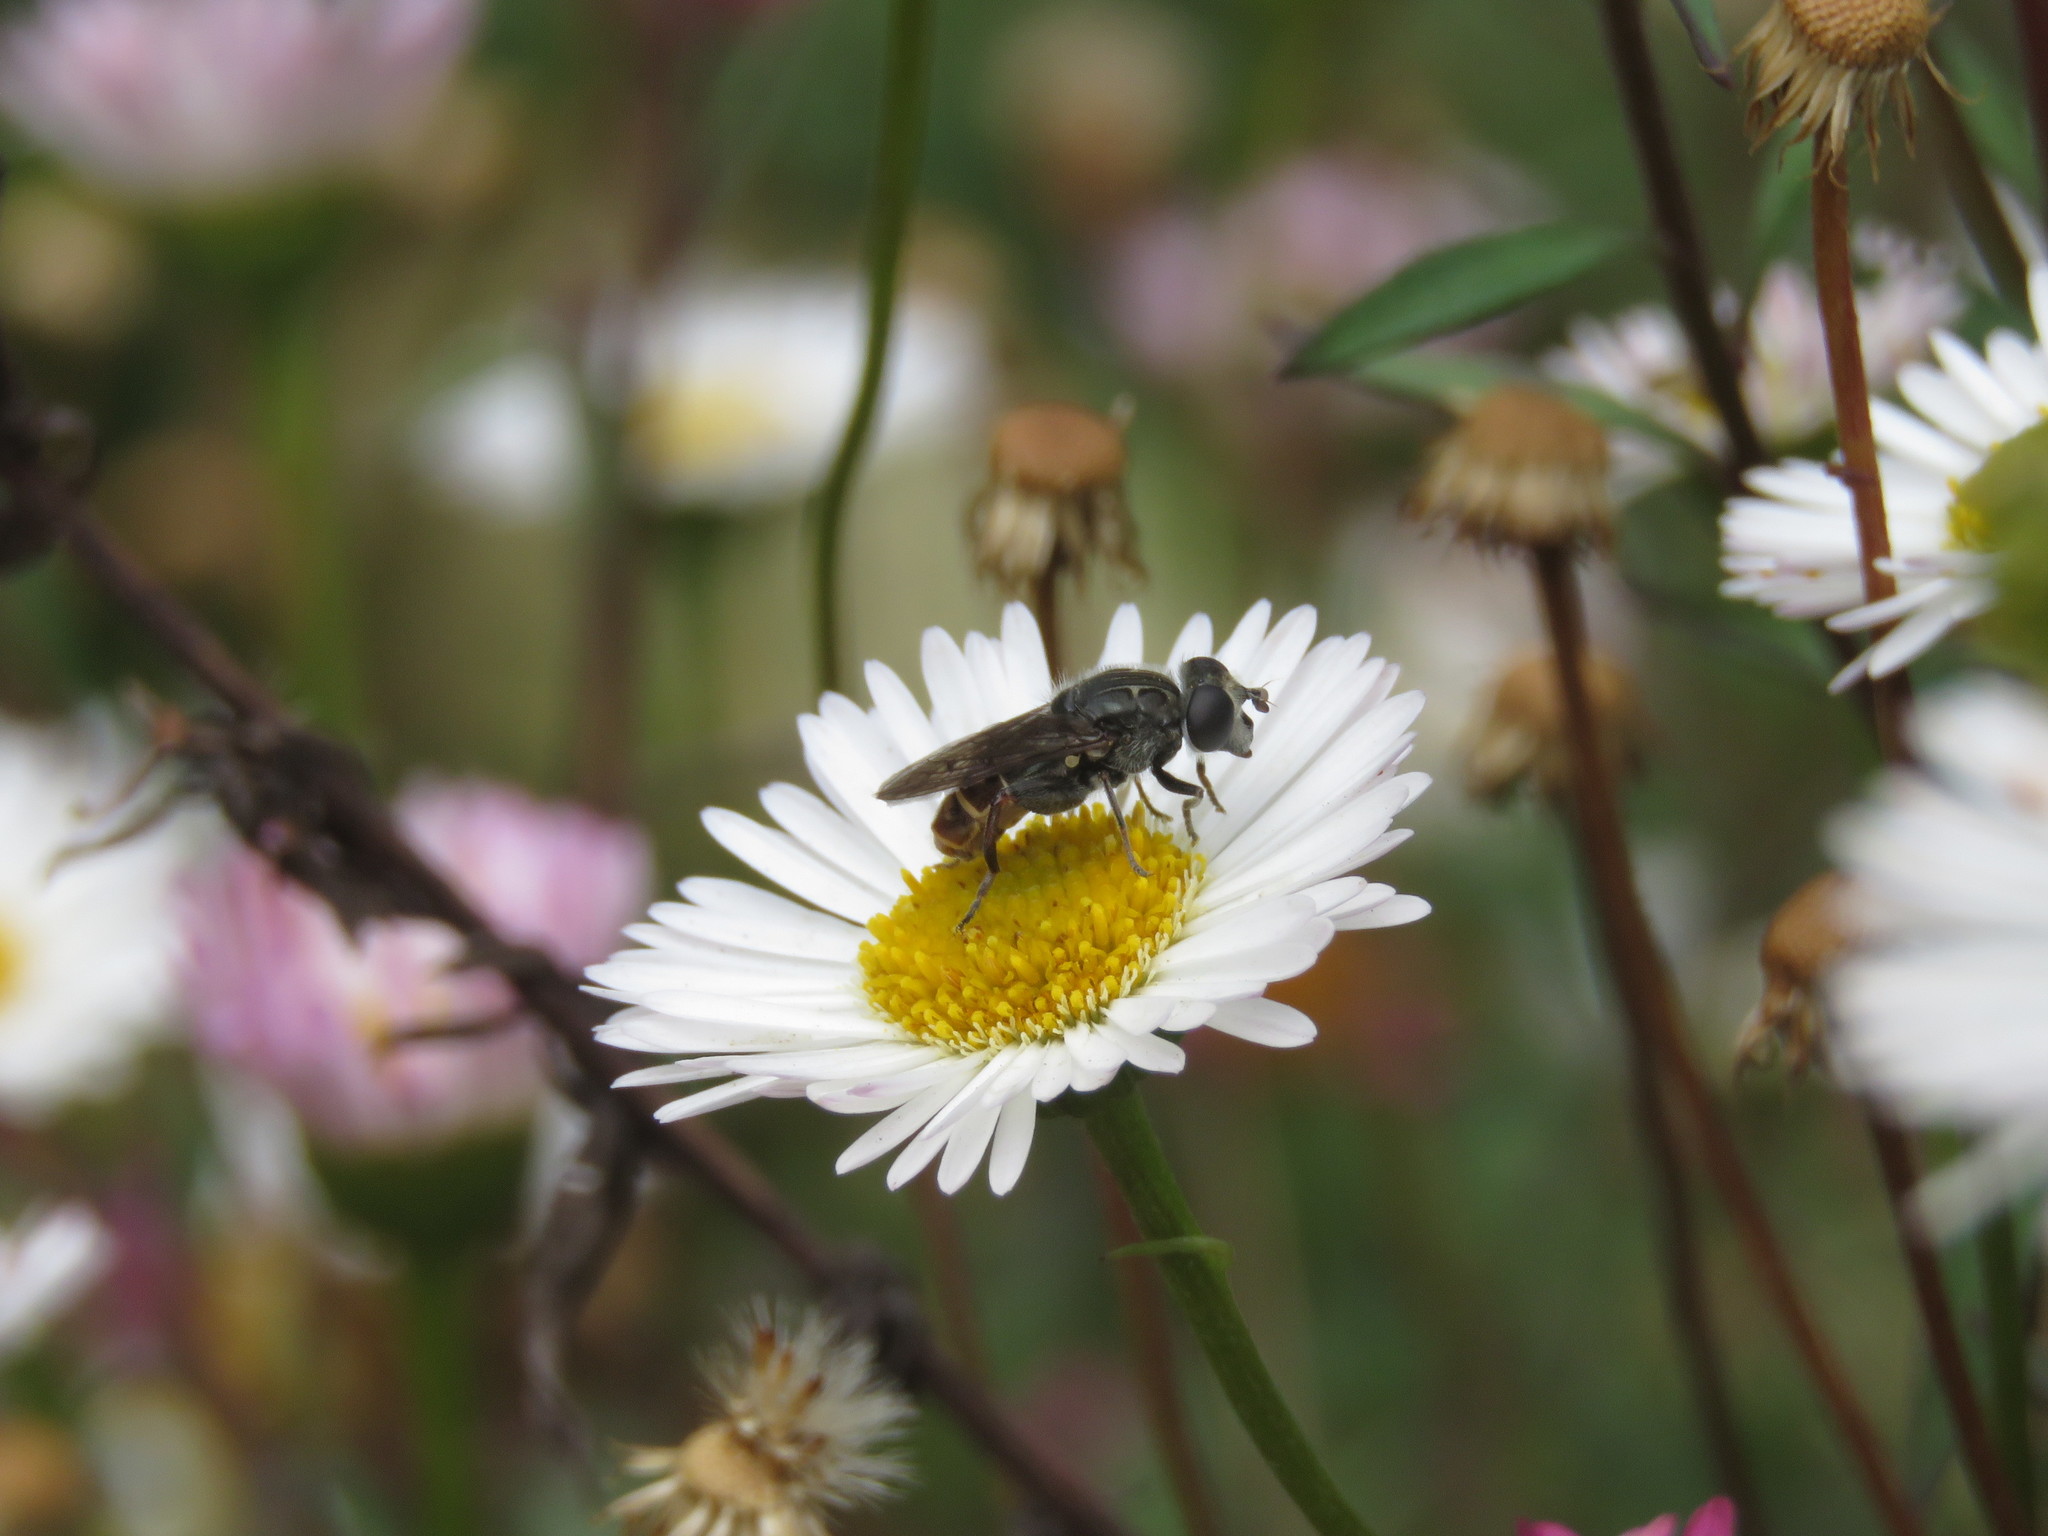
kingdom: Animalia
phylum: Arthropoda
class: Insecta
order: Diptera
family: Syrphidae
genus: Asemosyrphus
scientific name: Asemosyrphus
